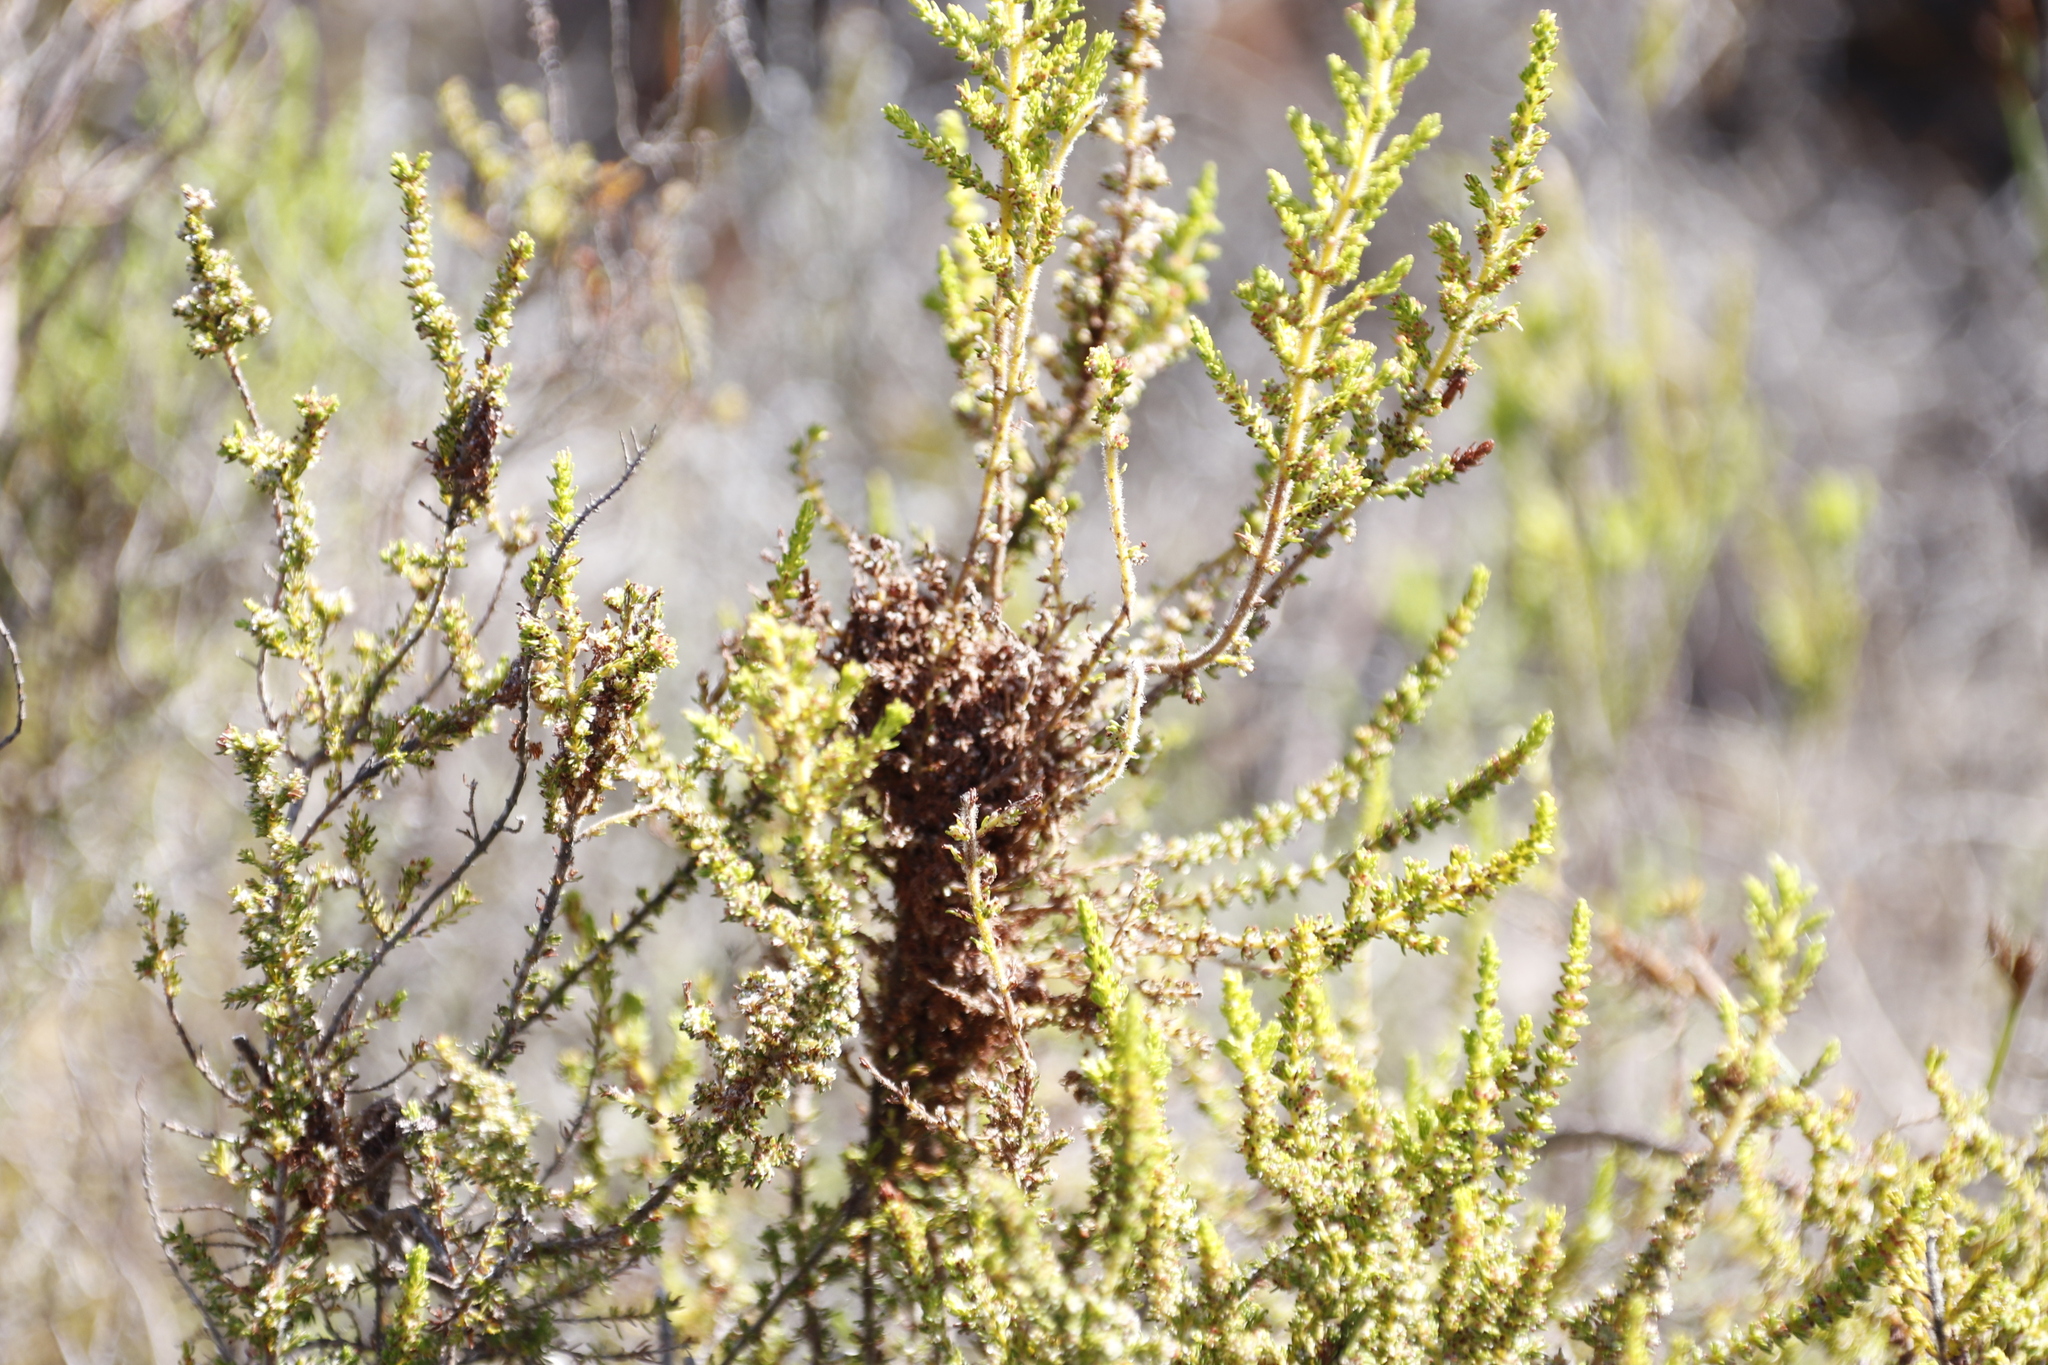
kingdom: Plantae
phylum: Tracheophyta
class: Magnoliopsida
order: Ericales
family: Ericaceae
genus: Erica
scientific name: Erica muscosa
